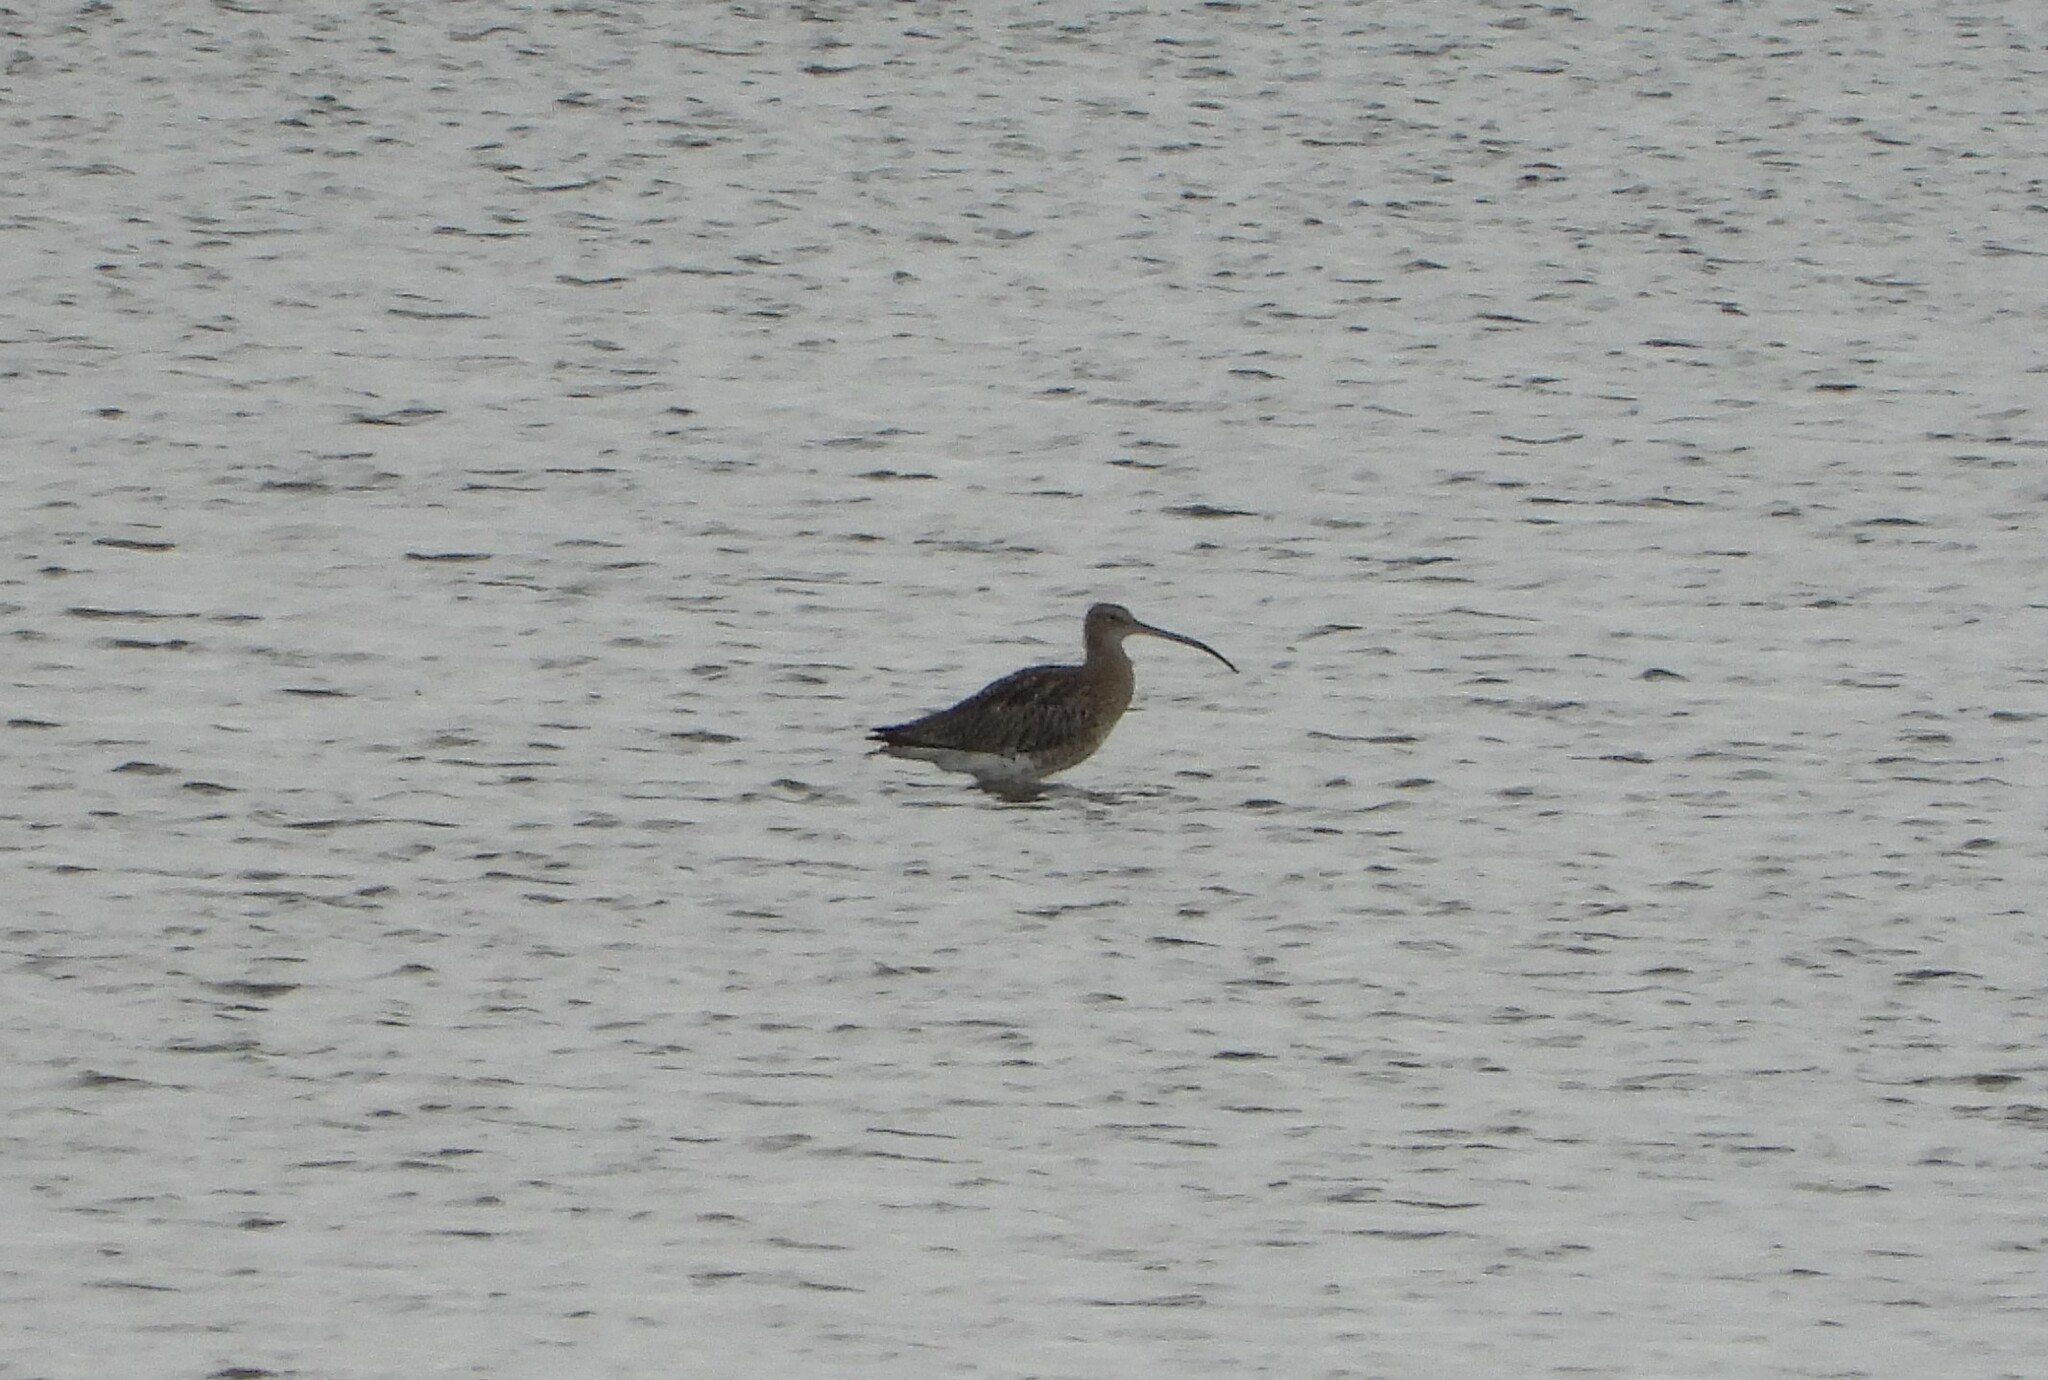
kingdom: Animalia
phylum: Chordata
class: Aves
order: Charadriiformes
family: Scolopacidae
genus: Numenius
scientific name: Numenius arquata
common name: Eurasian curlew
